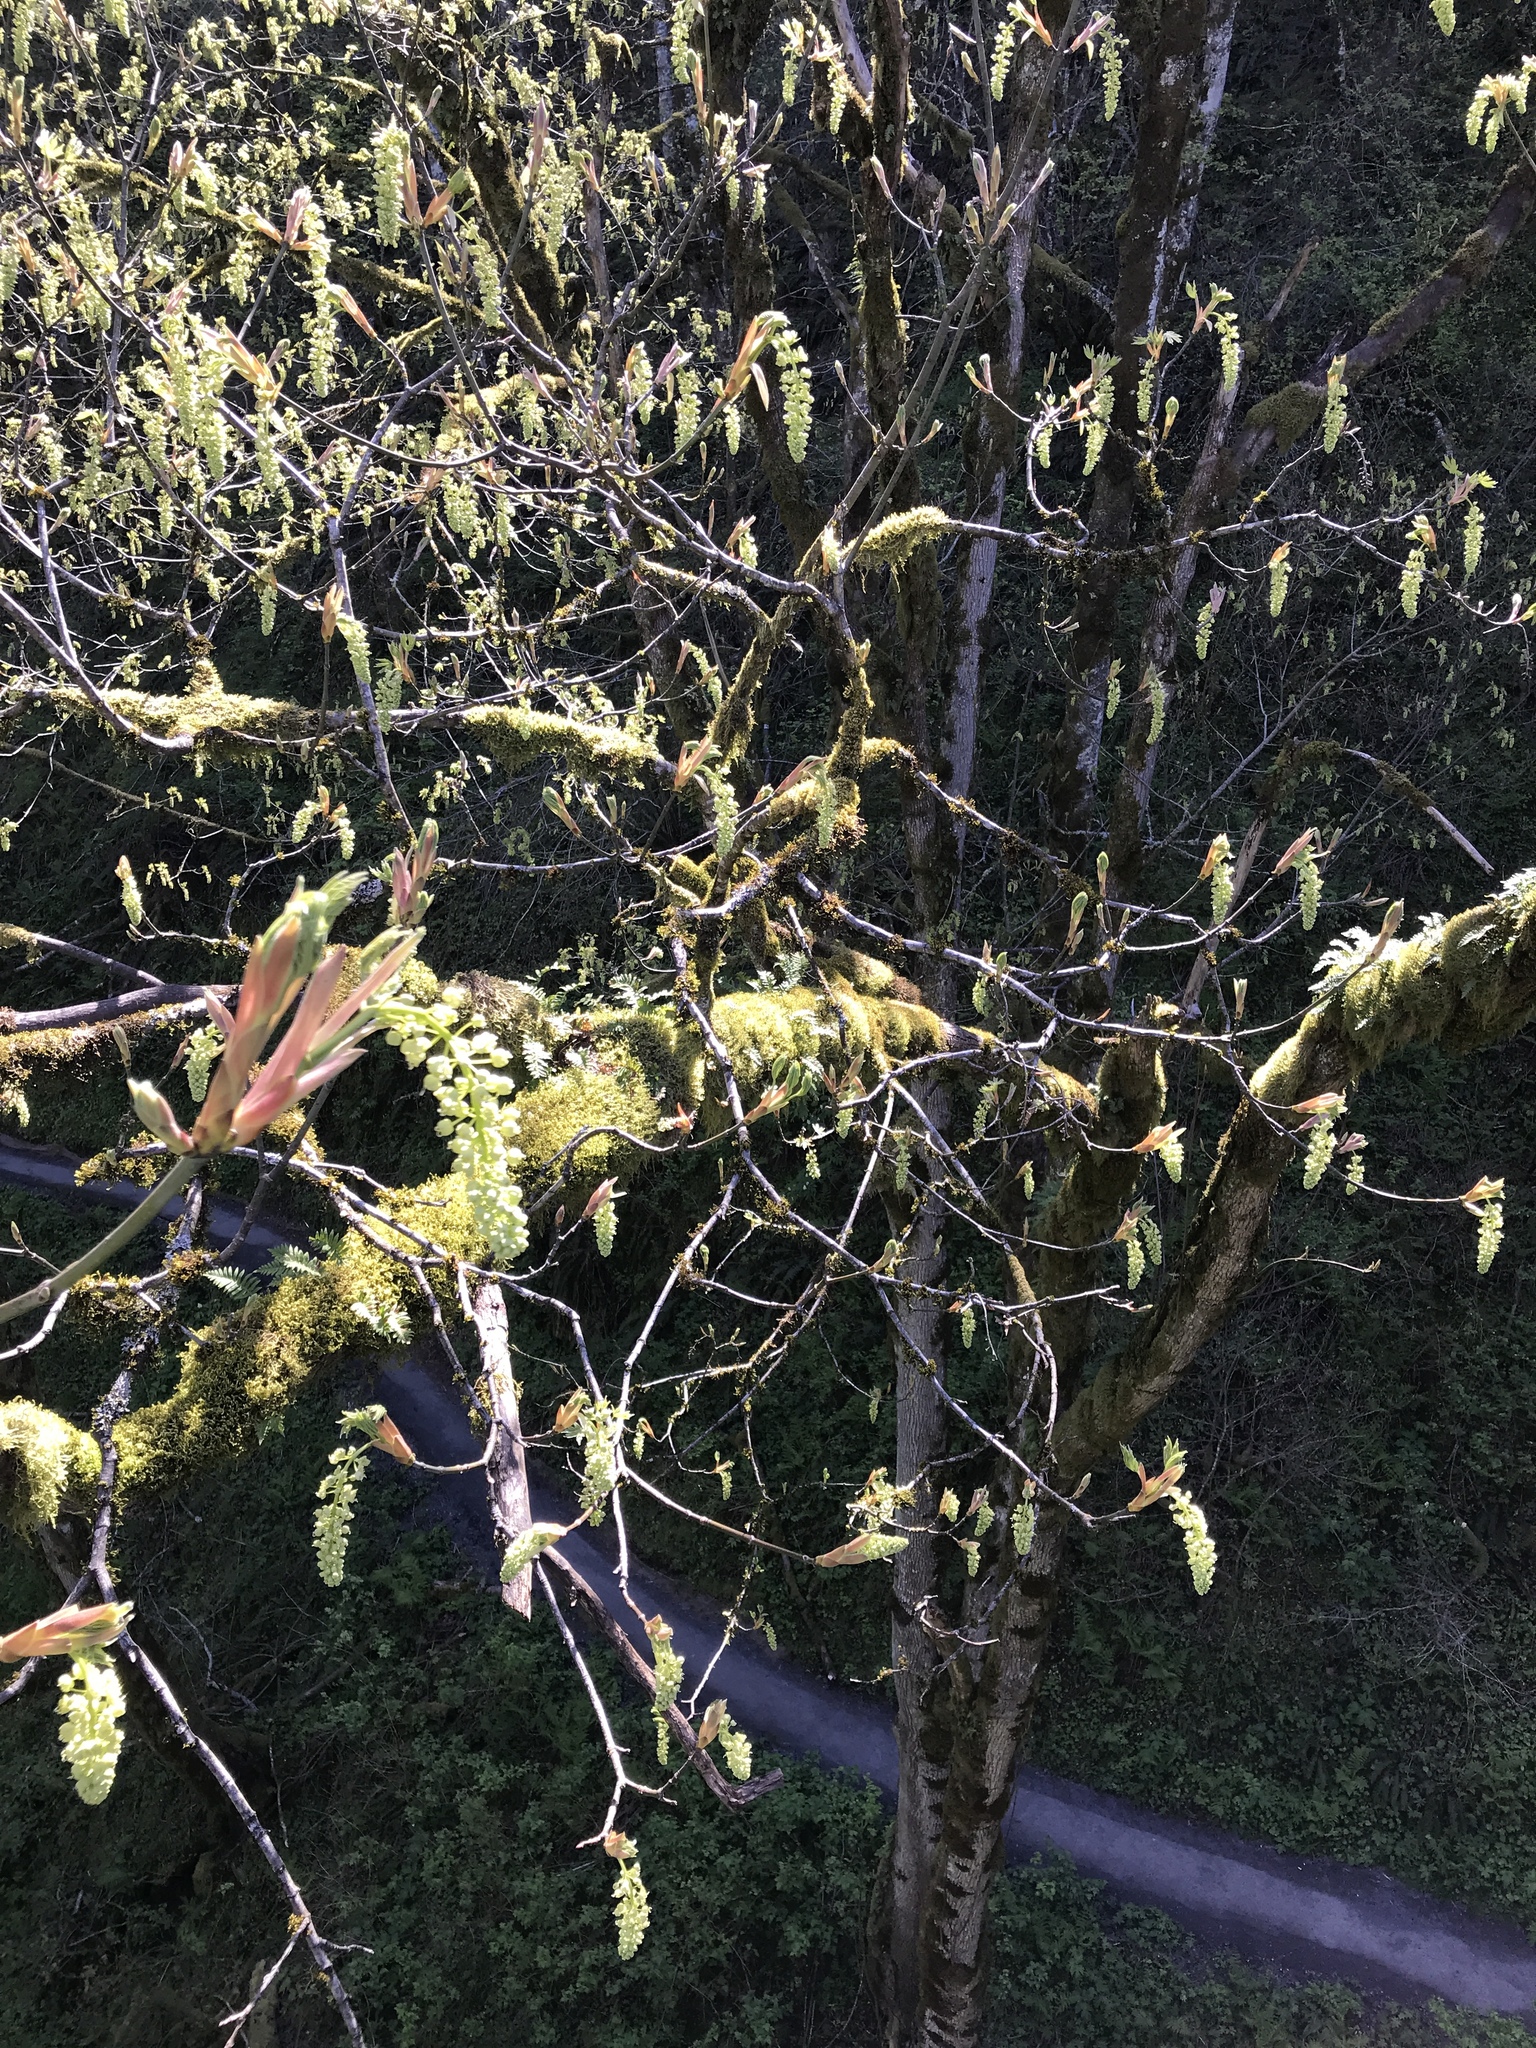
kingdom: Plantae
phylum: Tracheophyta
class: Magnoliopsida
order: Sapindales
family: Sapindaceae
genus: Acer
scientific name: Acer macrophyllum
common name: Oregon maple
